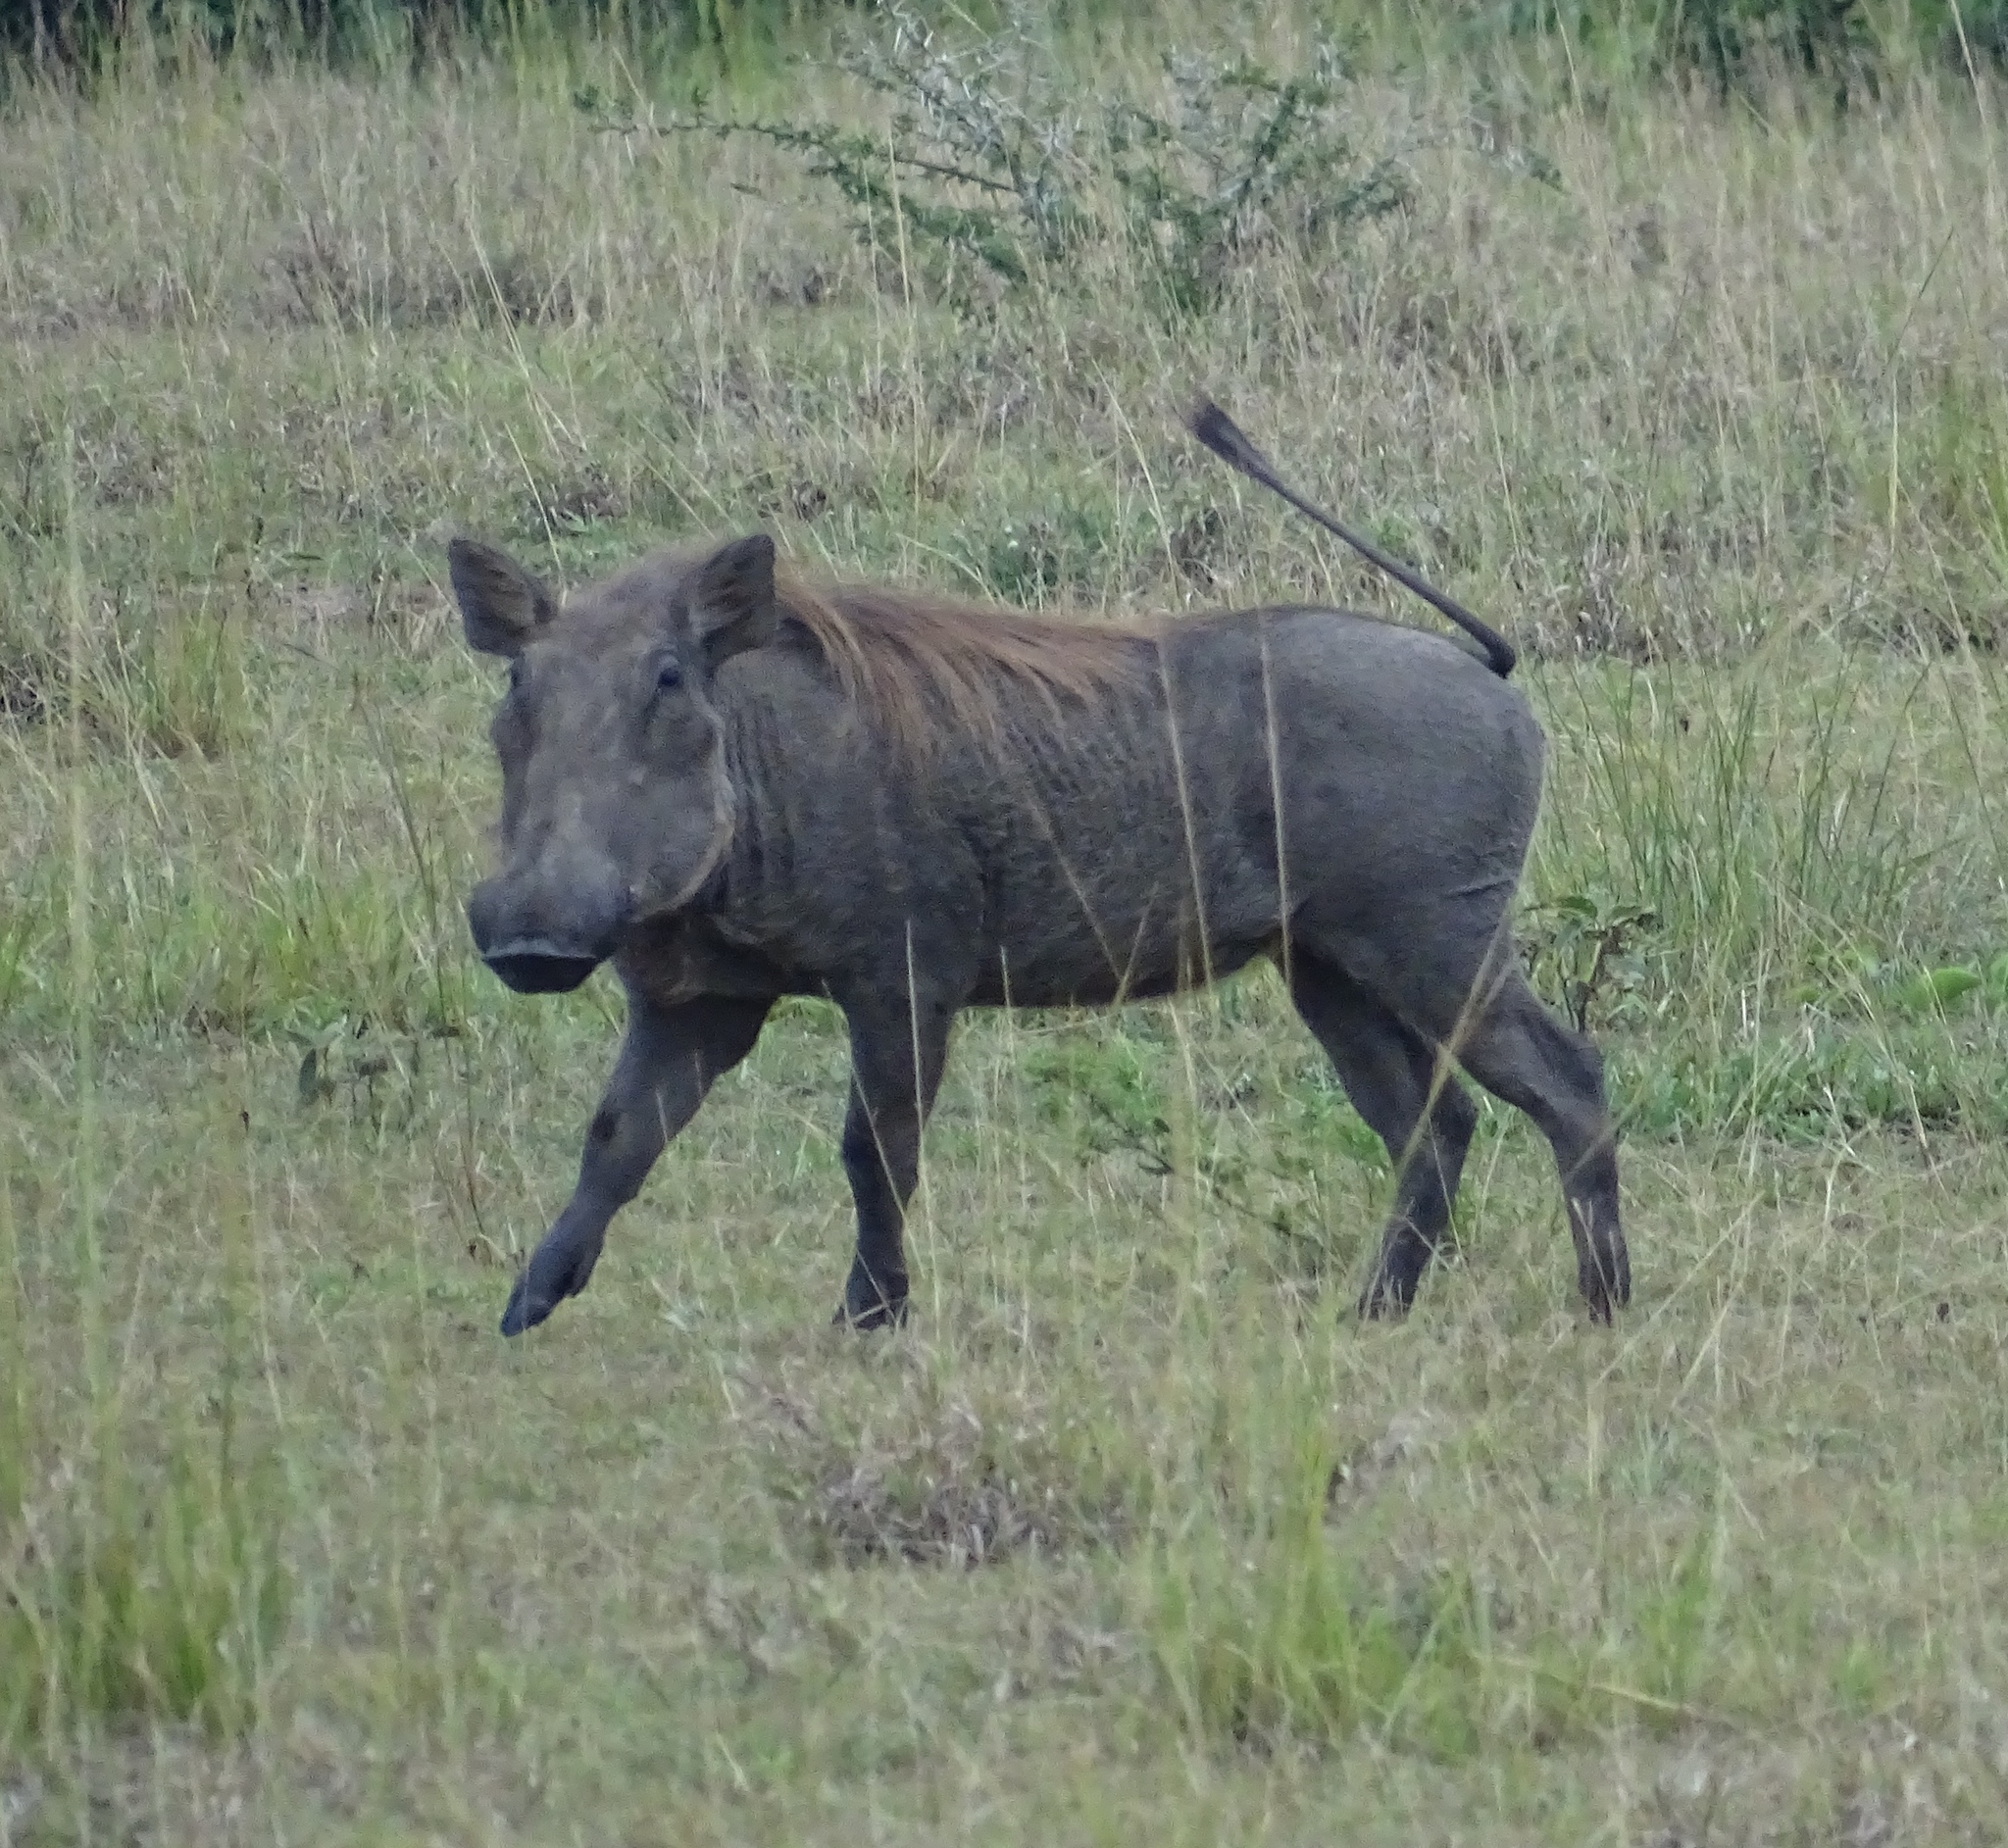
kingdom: Animalia
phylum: Chordata
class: Mammalia
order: Artiodactyla
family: Suidae
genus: Phacochoerus
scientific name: Phacochoerus africanus
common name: Common warthog
